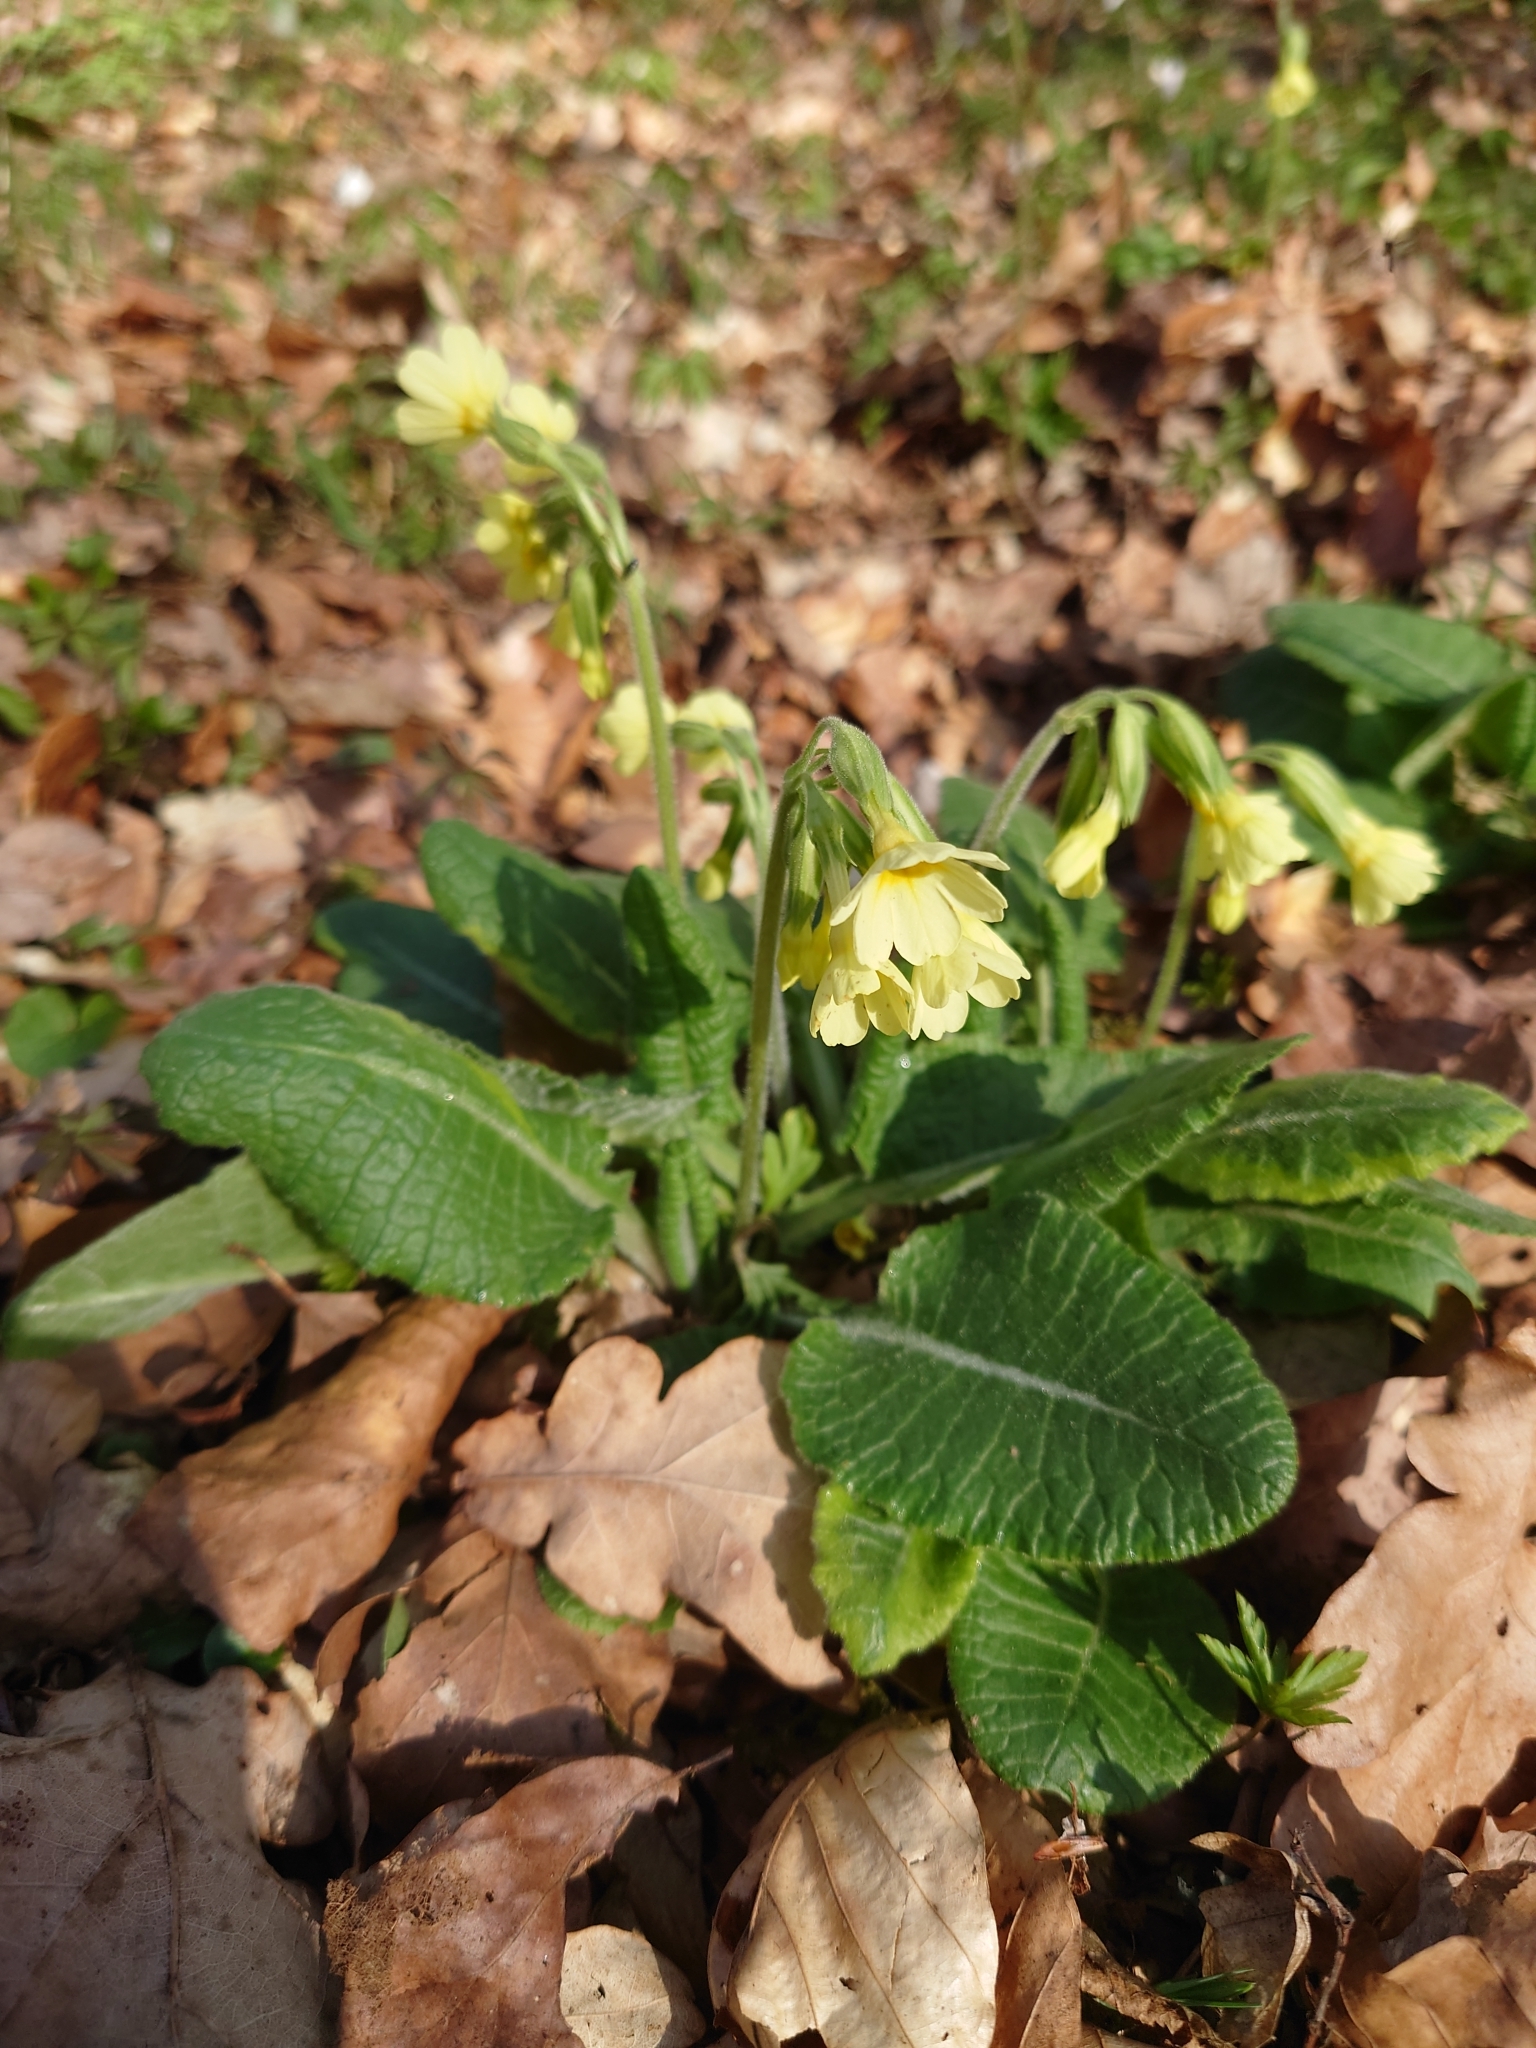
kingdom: Plantae
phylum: Tracheophyta
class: Magnoliopsida
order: Ericales
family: Primulaceae
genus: Primula
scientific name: Primula elatior
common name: Oxlip
